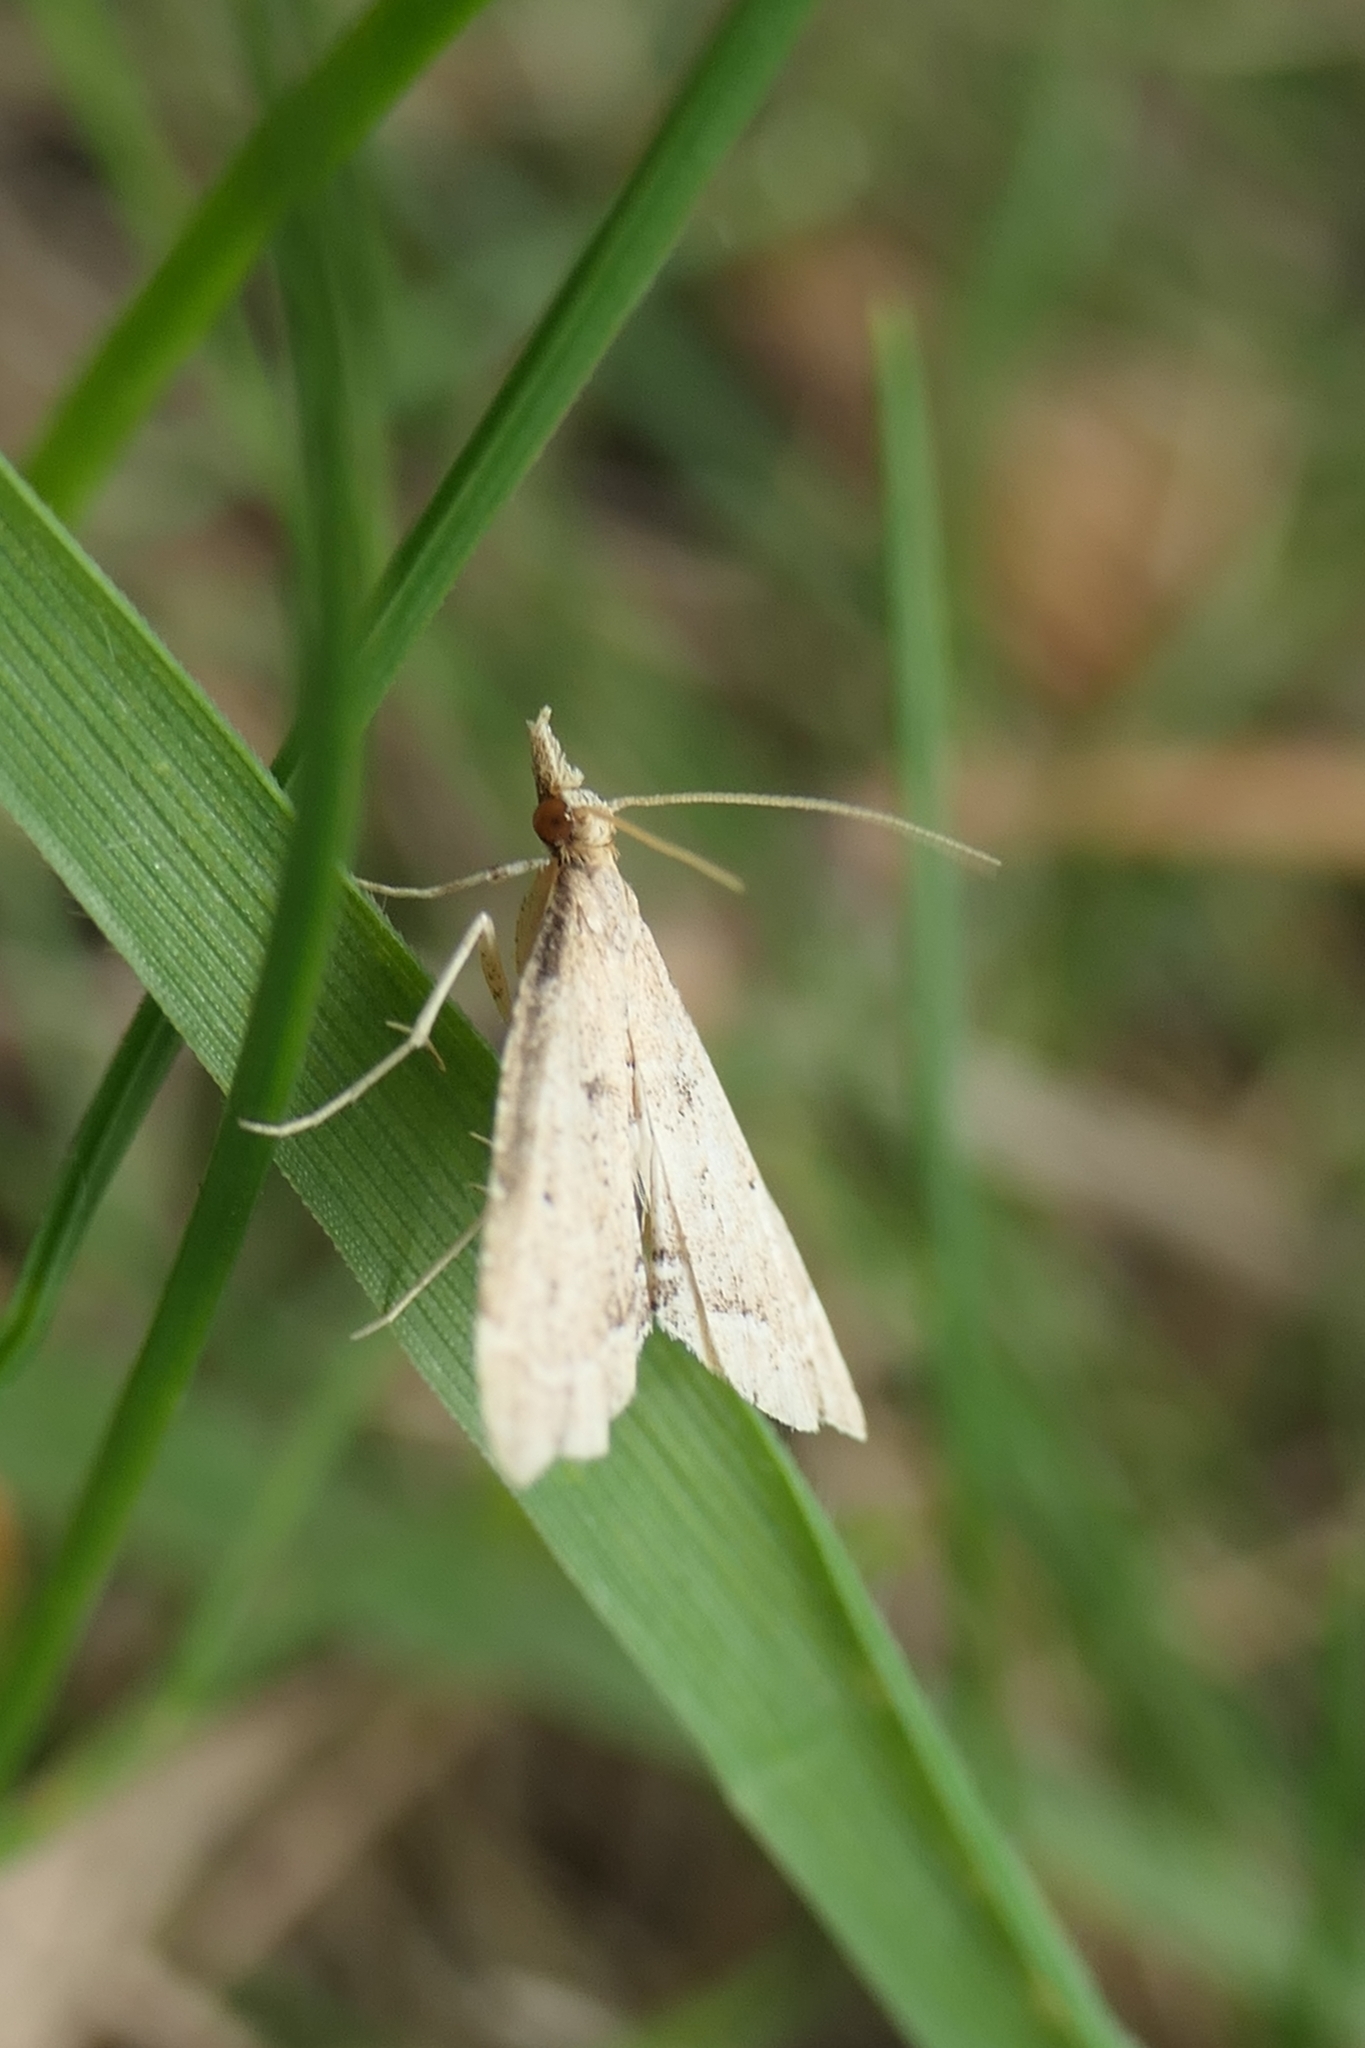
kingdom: Animalia
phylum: Arthropoda
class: Insecta
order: Lepidoptera
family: Crambidae
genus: Diplopseustis
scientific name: Diplopseustis perieresalis
